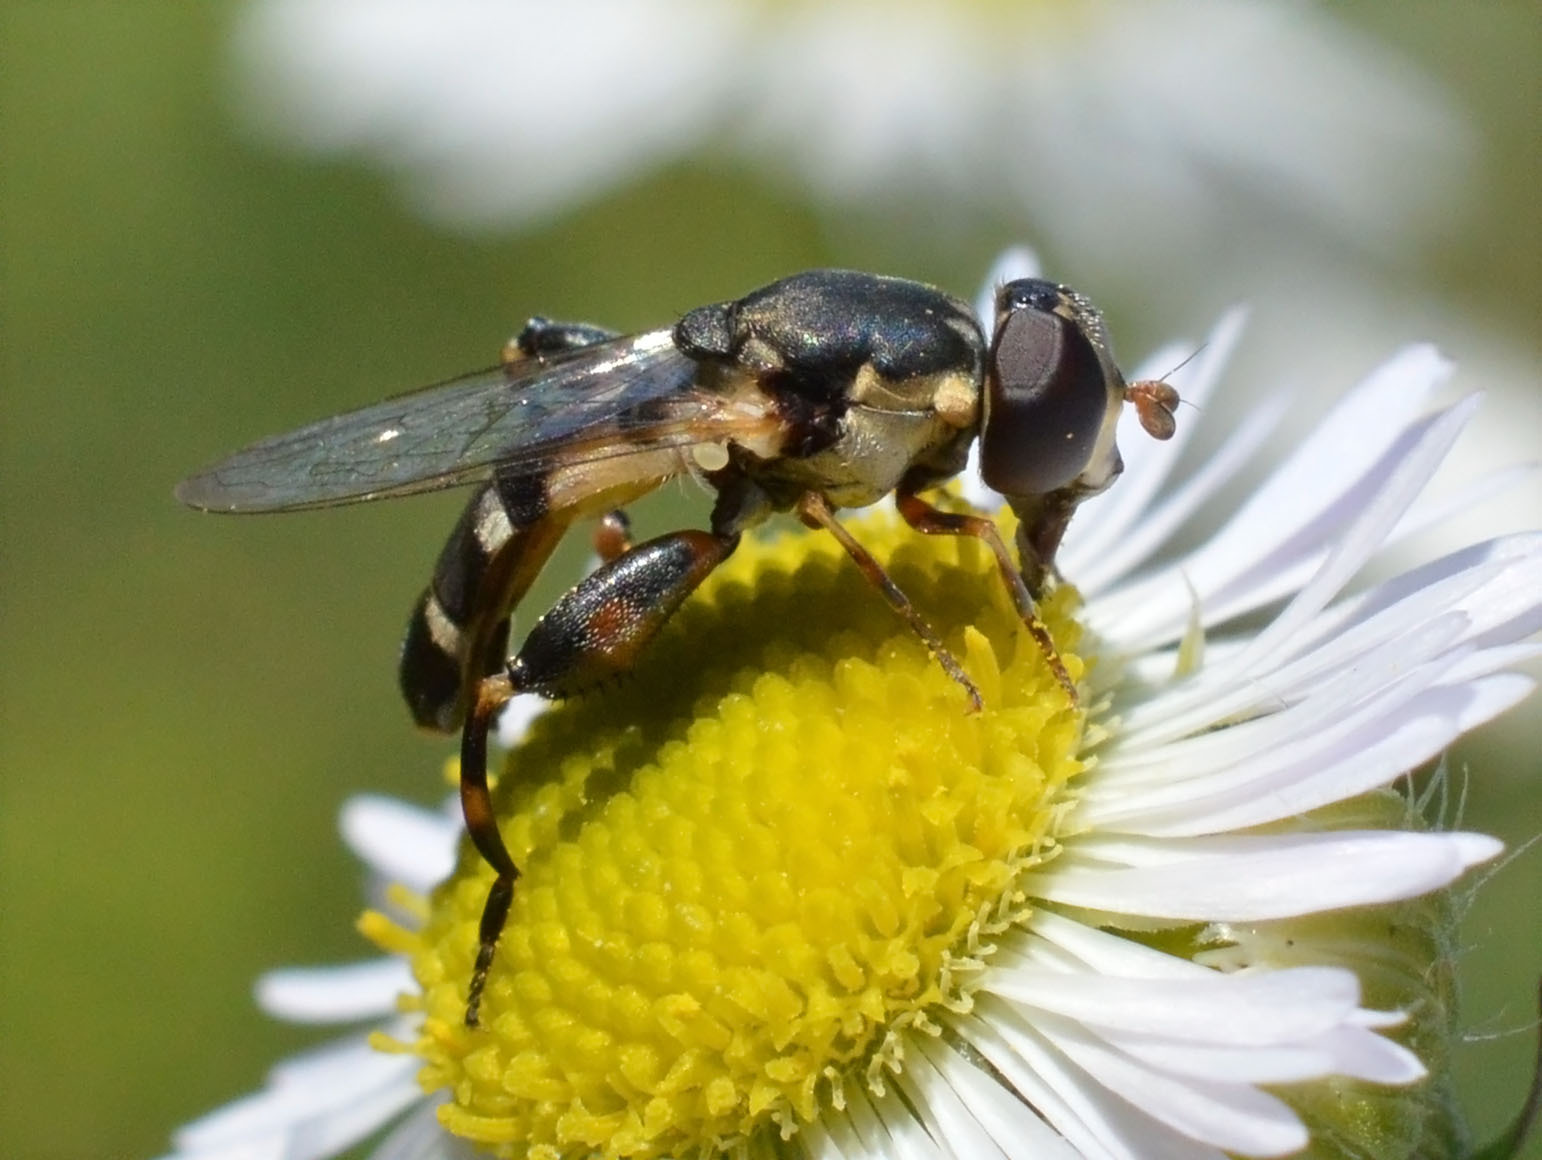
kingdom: Animalia
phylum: Arthropoda
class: Insecta
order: Diptera
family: Syrphidae
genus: Syritta
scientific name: Syritta pipiens
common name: Hover fly
